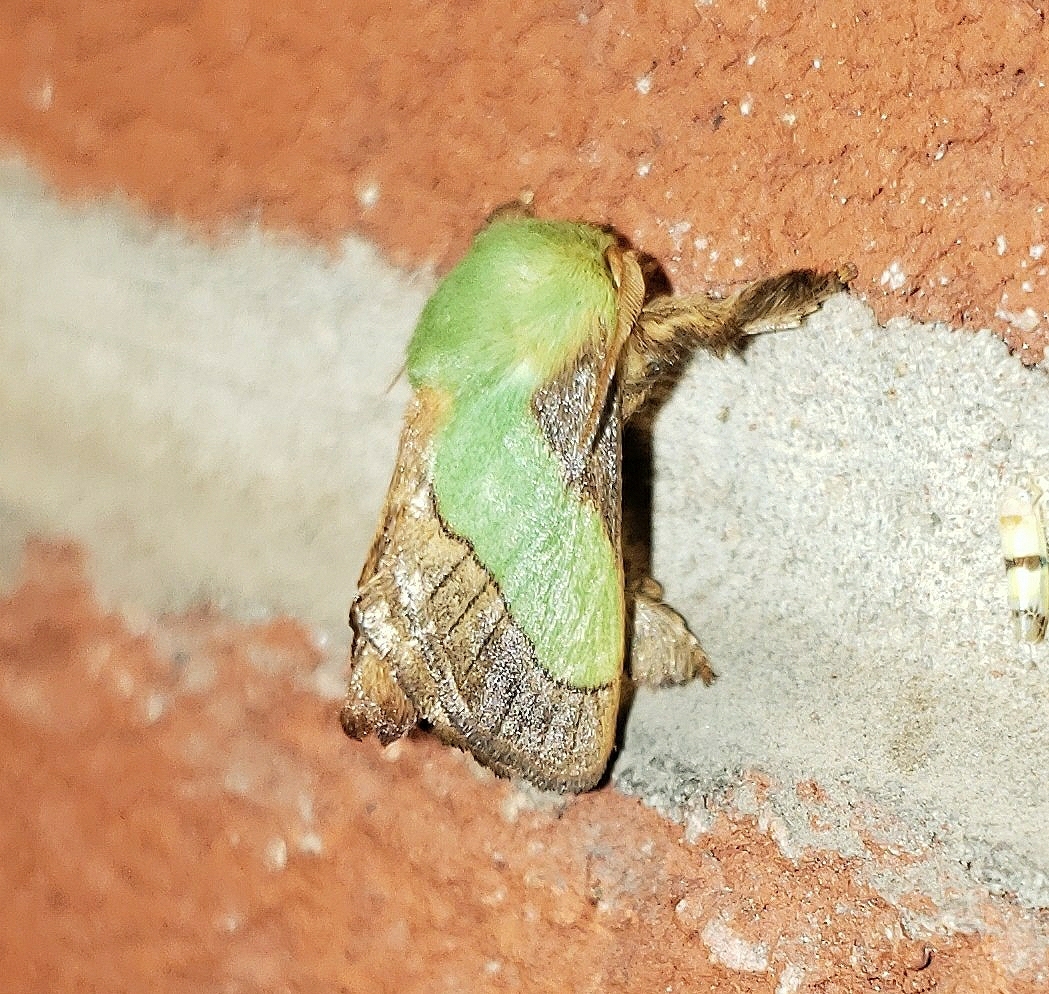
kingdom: Animalia
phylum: Arthropoda
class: Insecta
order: Lepidoptera
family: Limacodidae
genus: Parasa
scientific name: Parasa chloris
